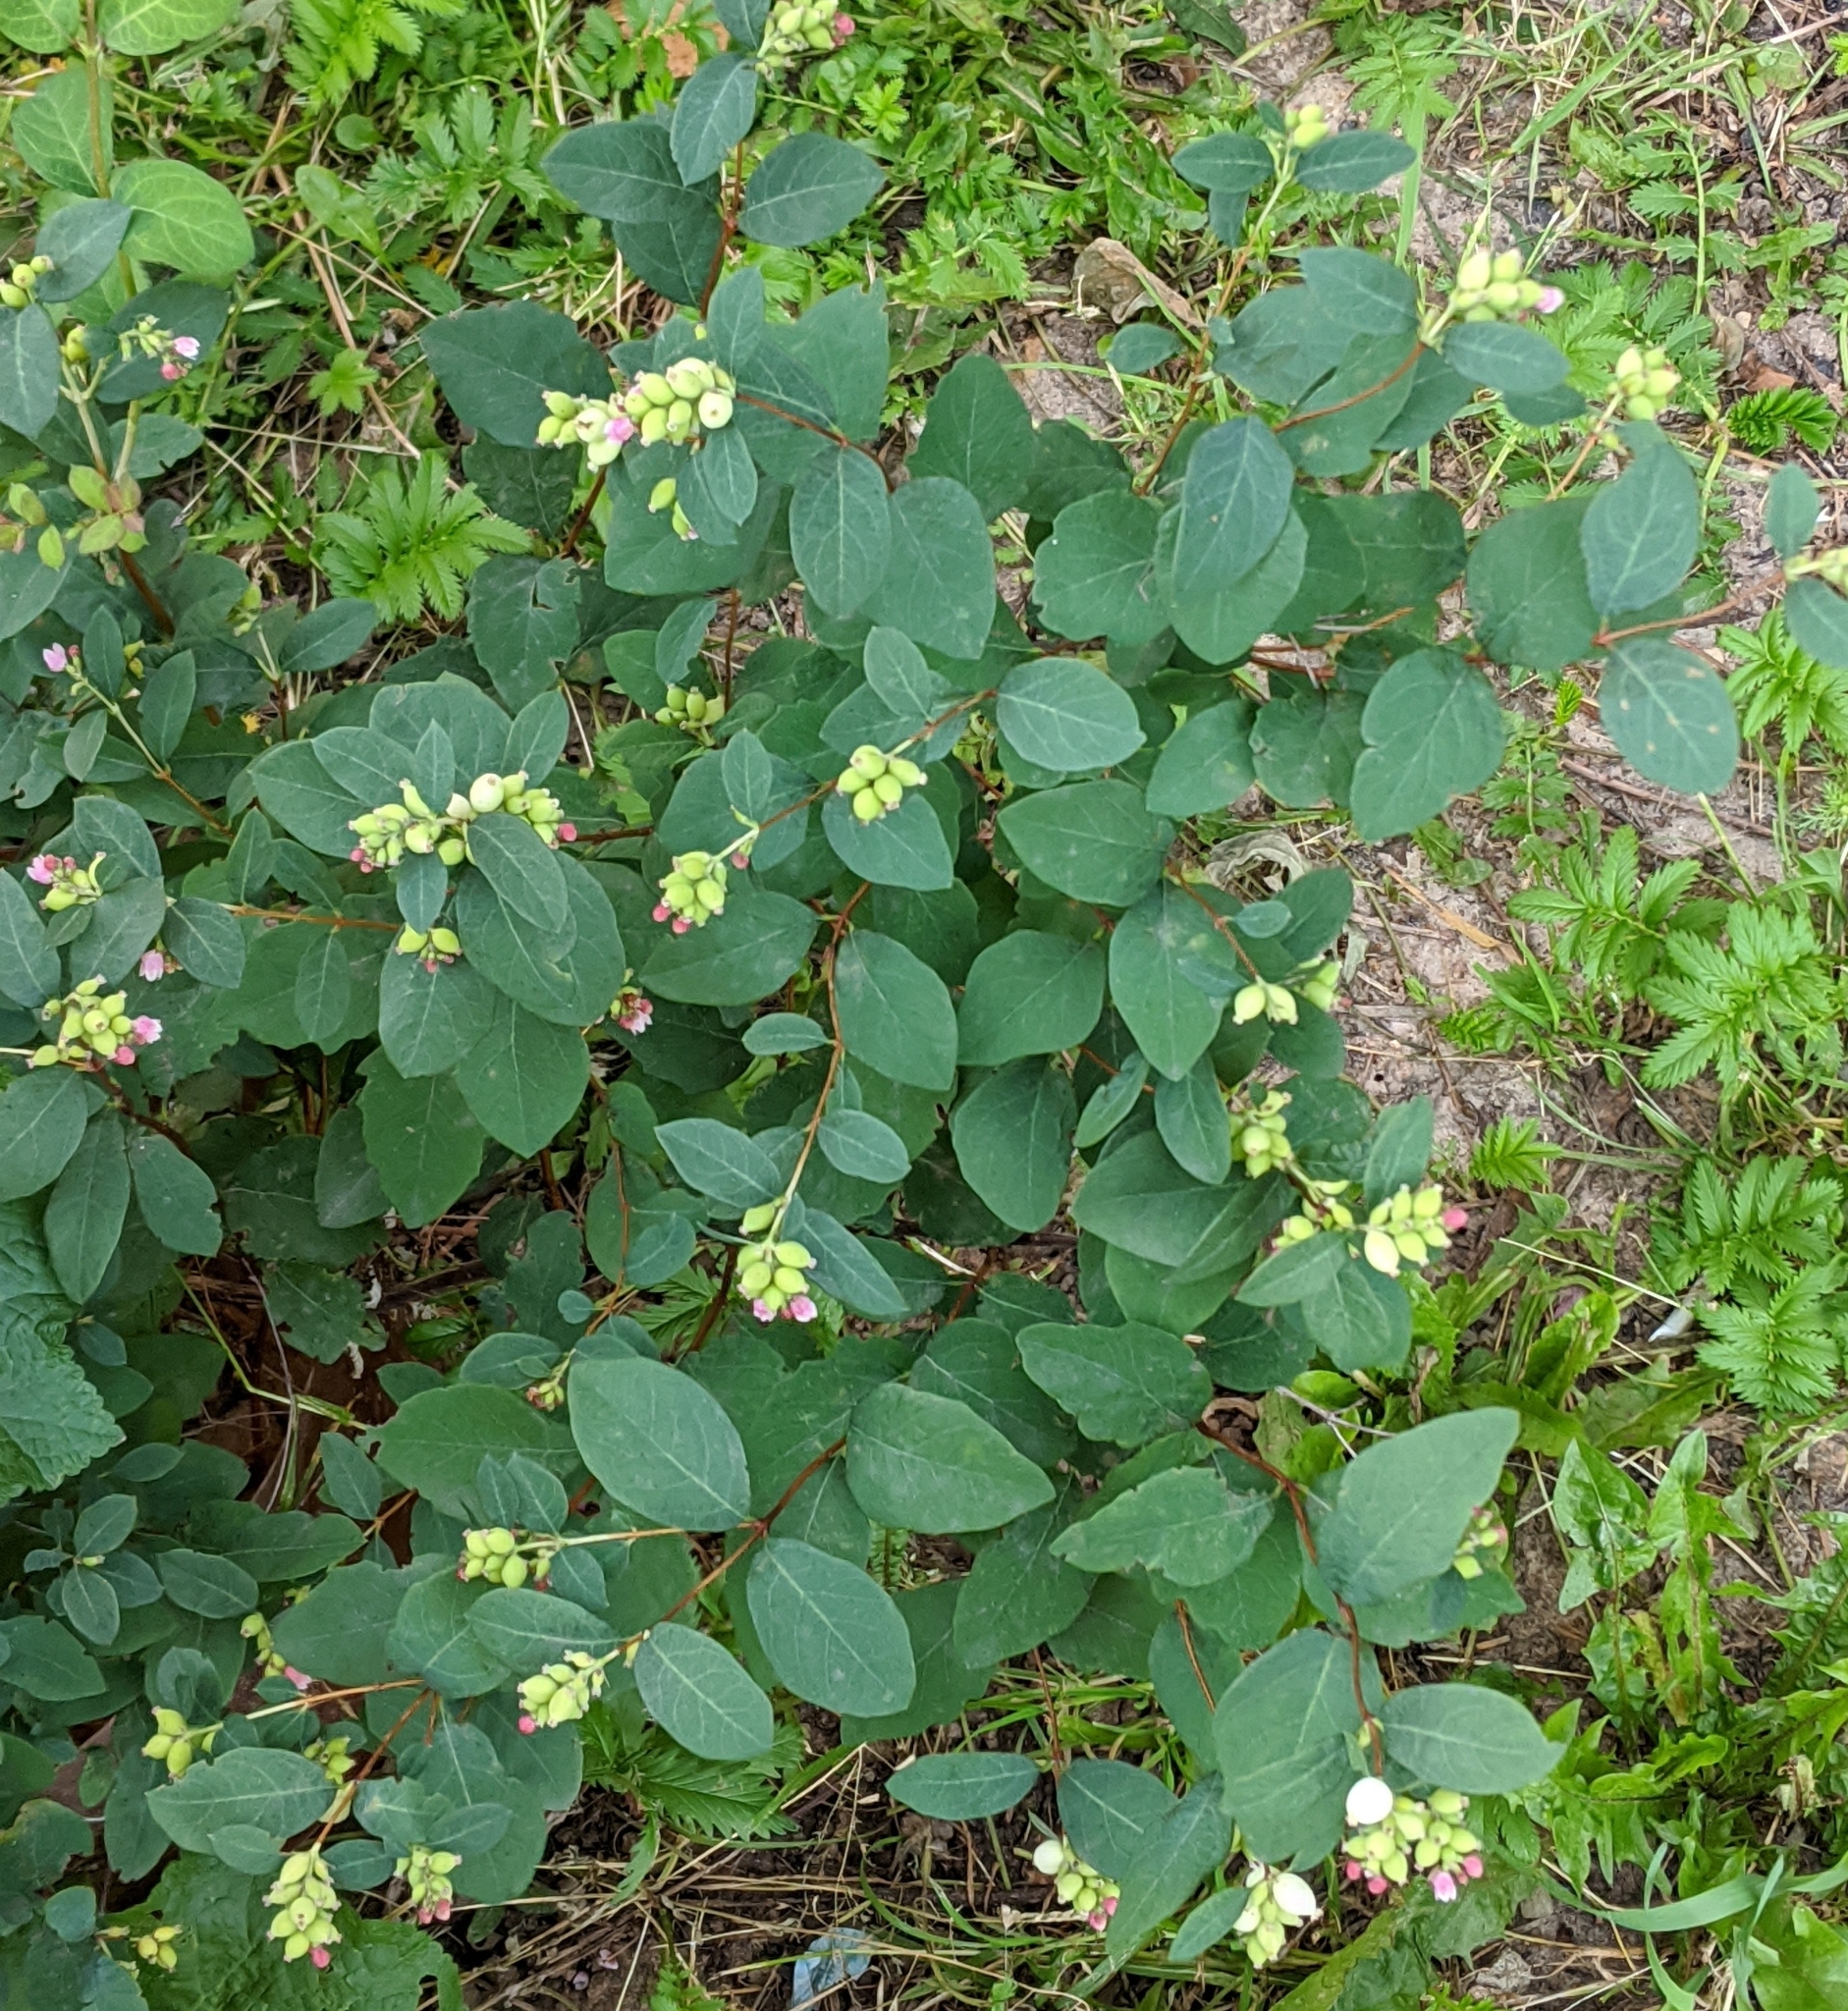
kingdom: Plantae
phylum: Tracheophyta
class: Magnoliopsida
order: Dipsacales
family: Caprifoliaceae
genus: Symphoricarpos
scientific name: Symphoricarpos albus
